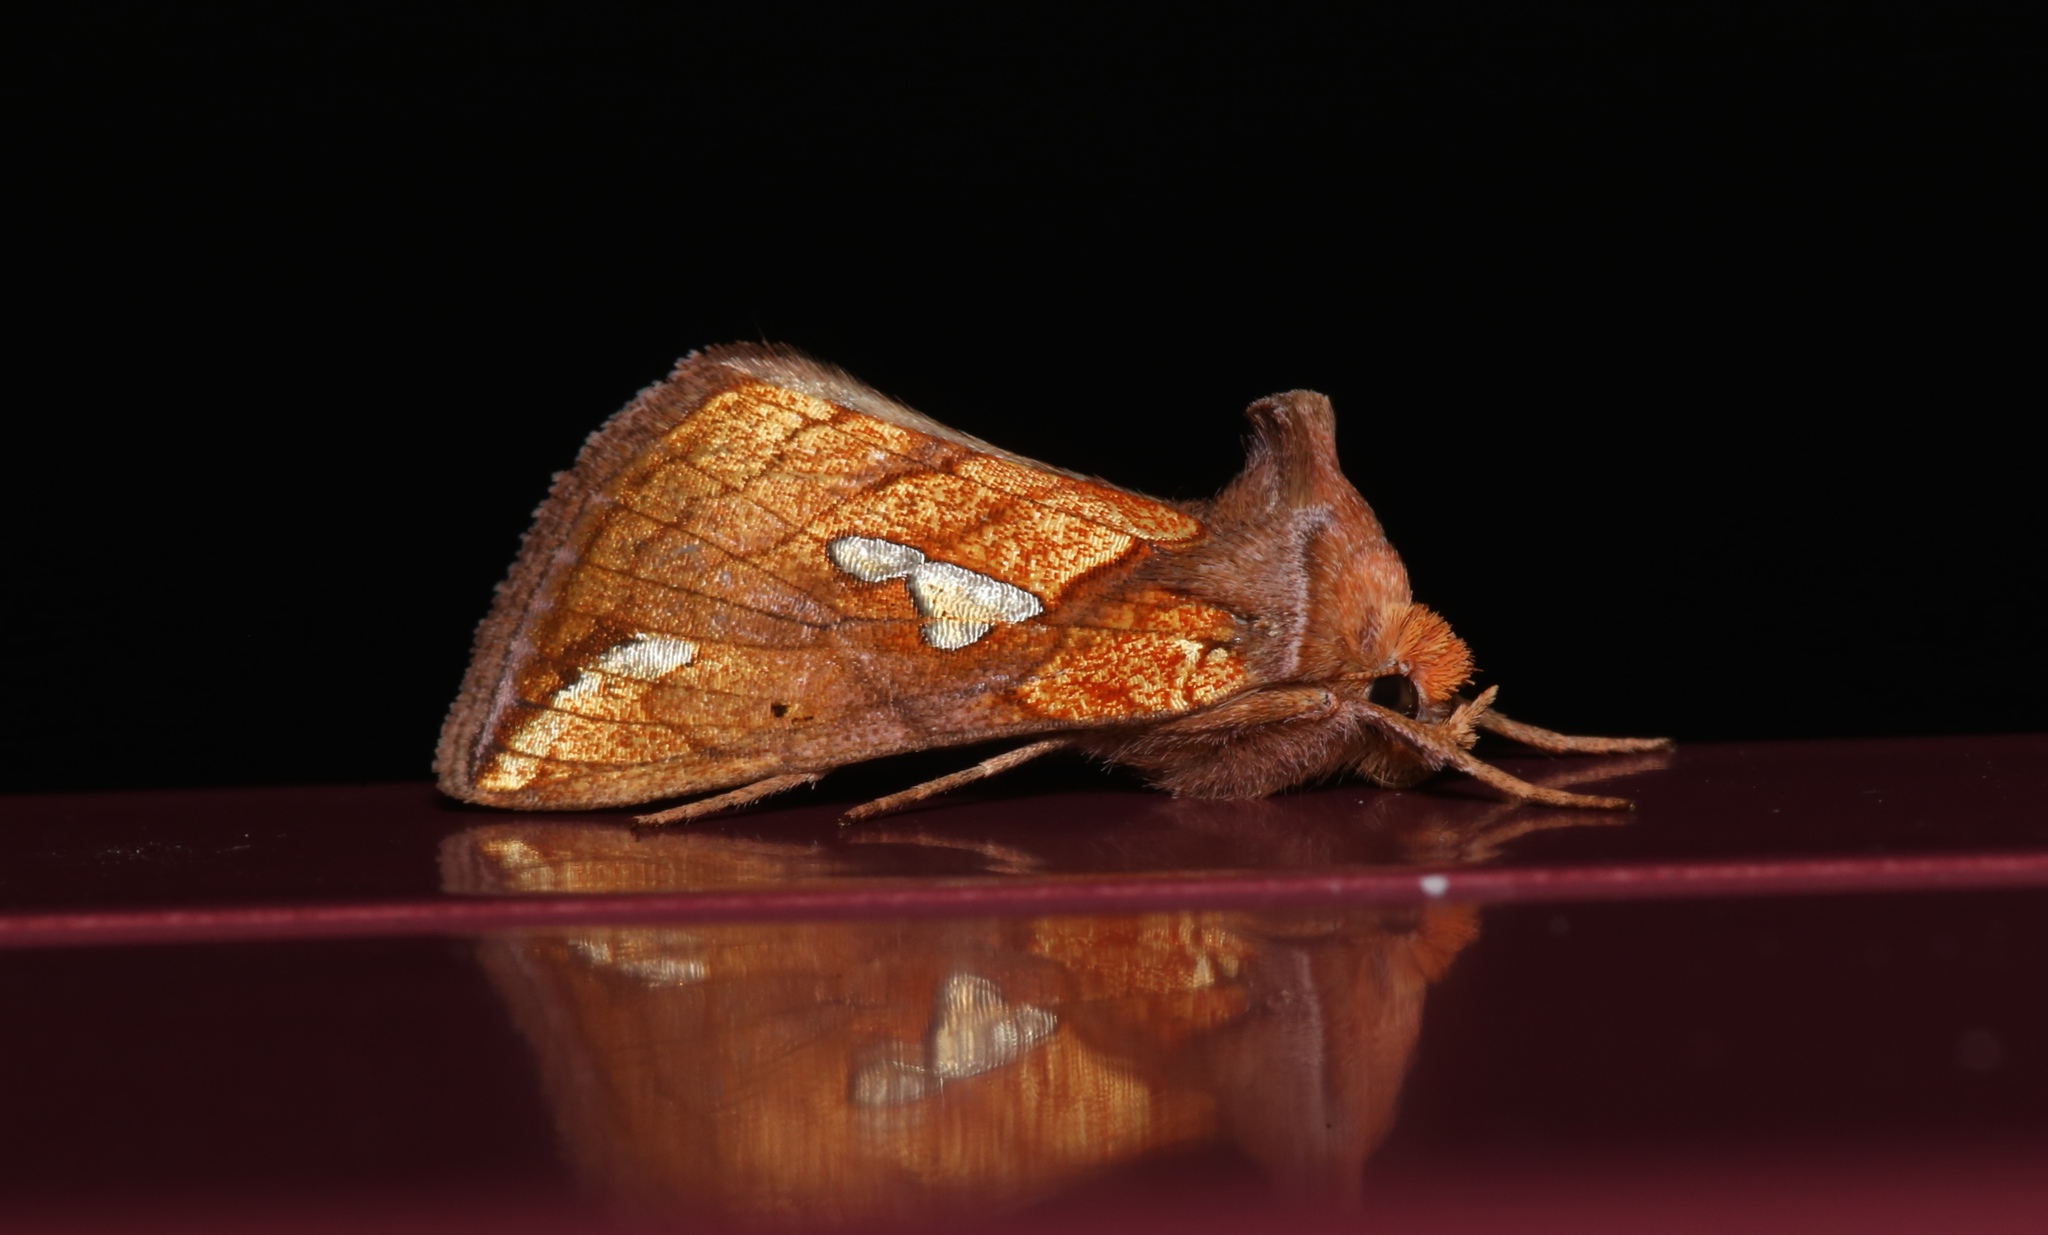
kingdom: Animalia
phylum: Arthropoda
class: Insecta
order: Lepidoptera
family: Noctuidae
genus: Plusia
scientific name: Plusia putnami
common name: Lempke's gold spot
